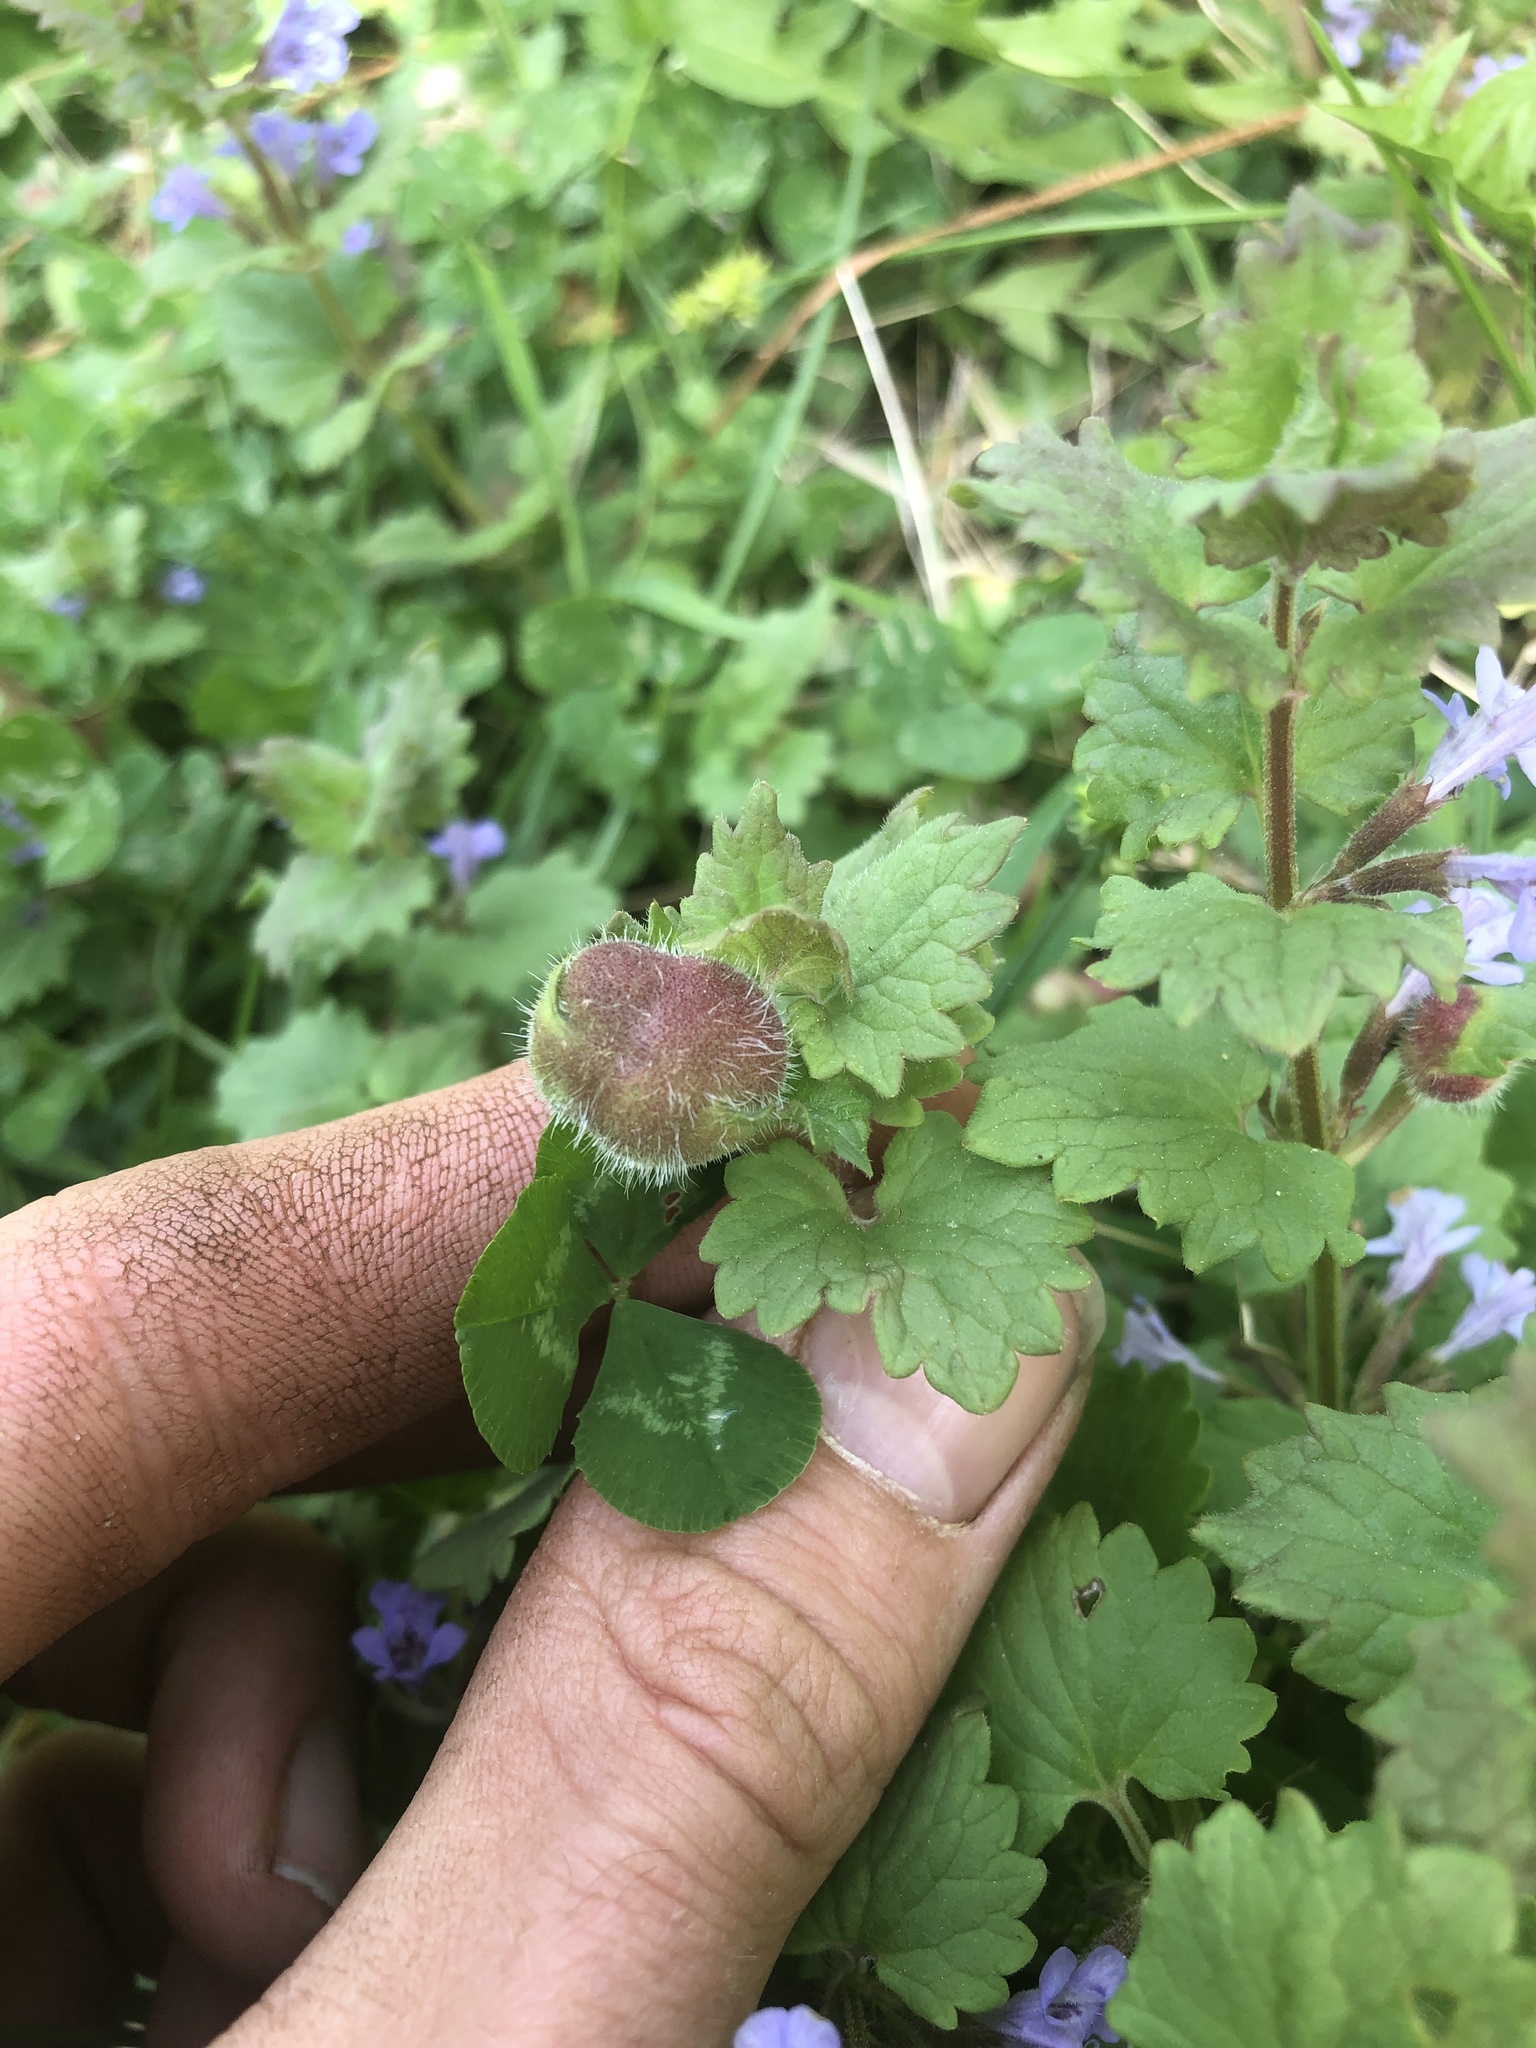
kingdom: Animalia
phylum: Arthropoda
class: Insecta
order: Hymenoptera
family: Cynipidae
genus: Liposthenes
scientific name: Liposthenes glechomae
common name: Gall wasp
